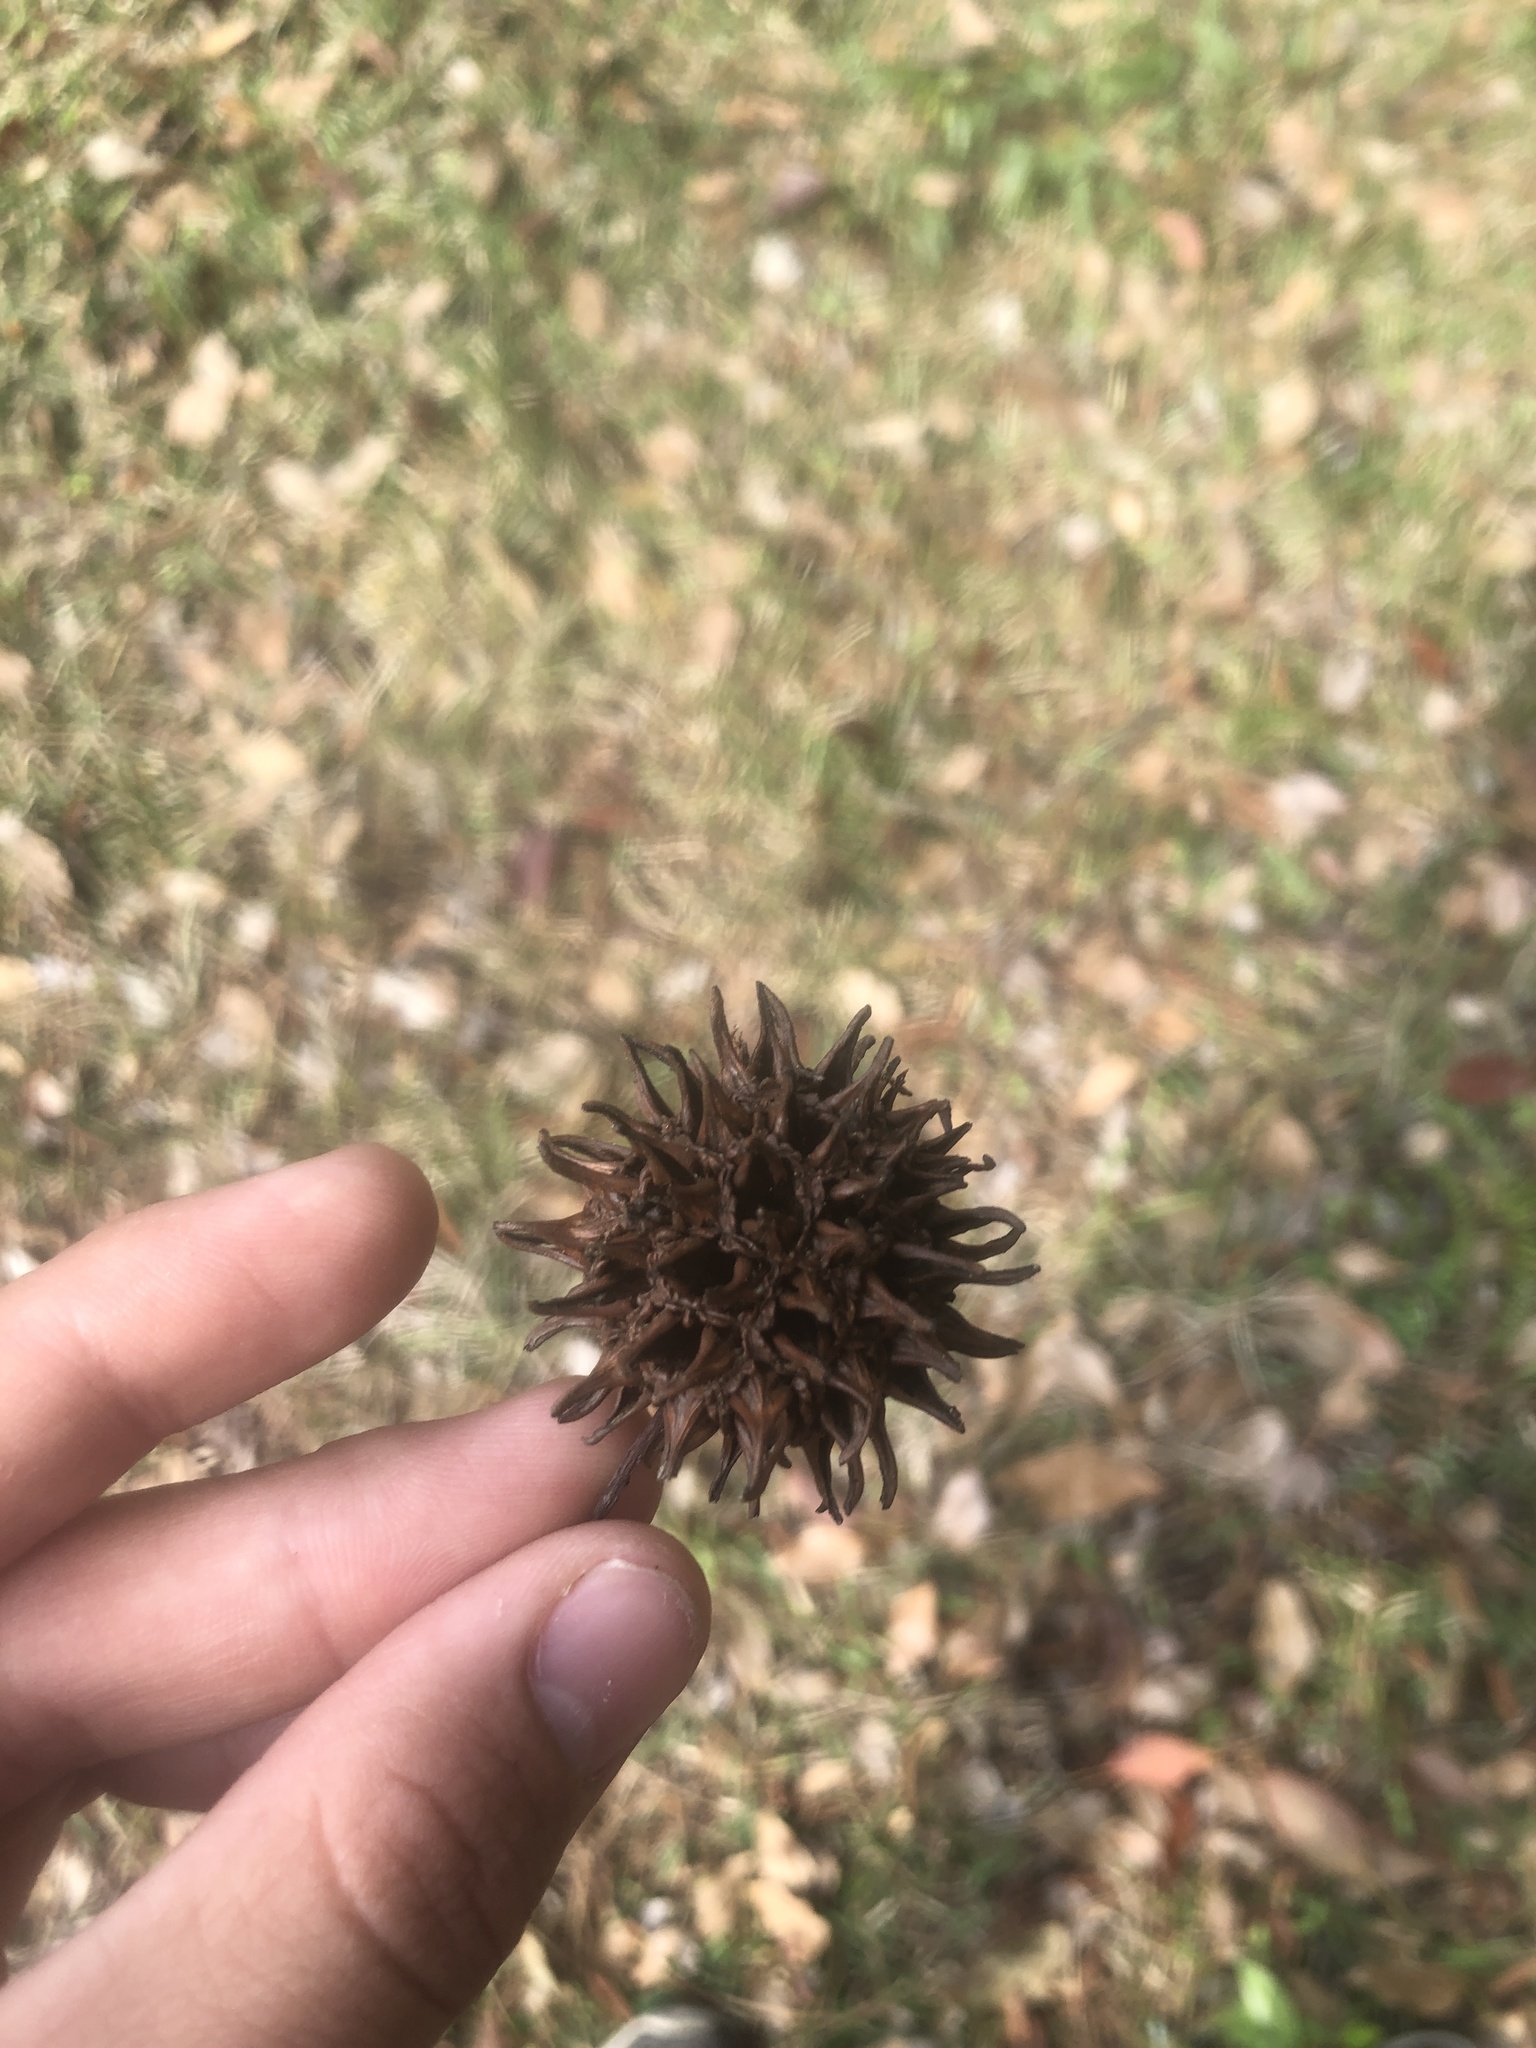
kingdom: Plantae
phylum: Tracheophyta
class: Magnoliopsida
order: Saxifragales
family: Altingiaceae
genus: Liquidambar
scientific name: Liquidambar styraciflua
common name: Sweet gum
